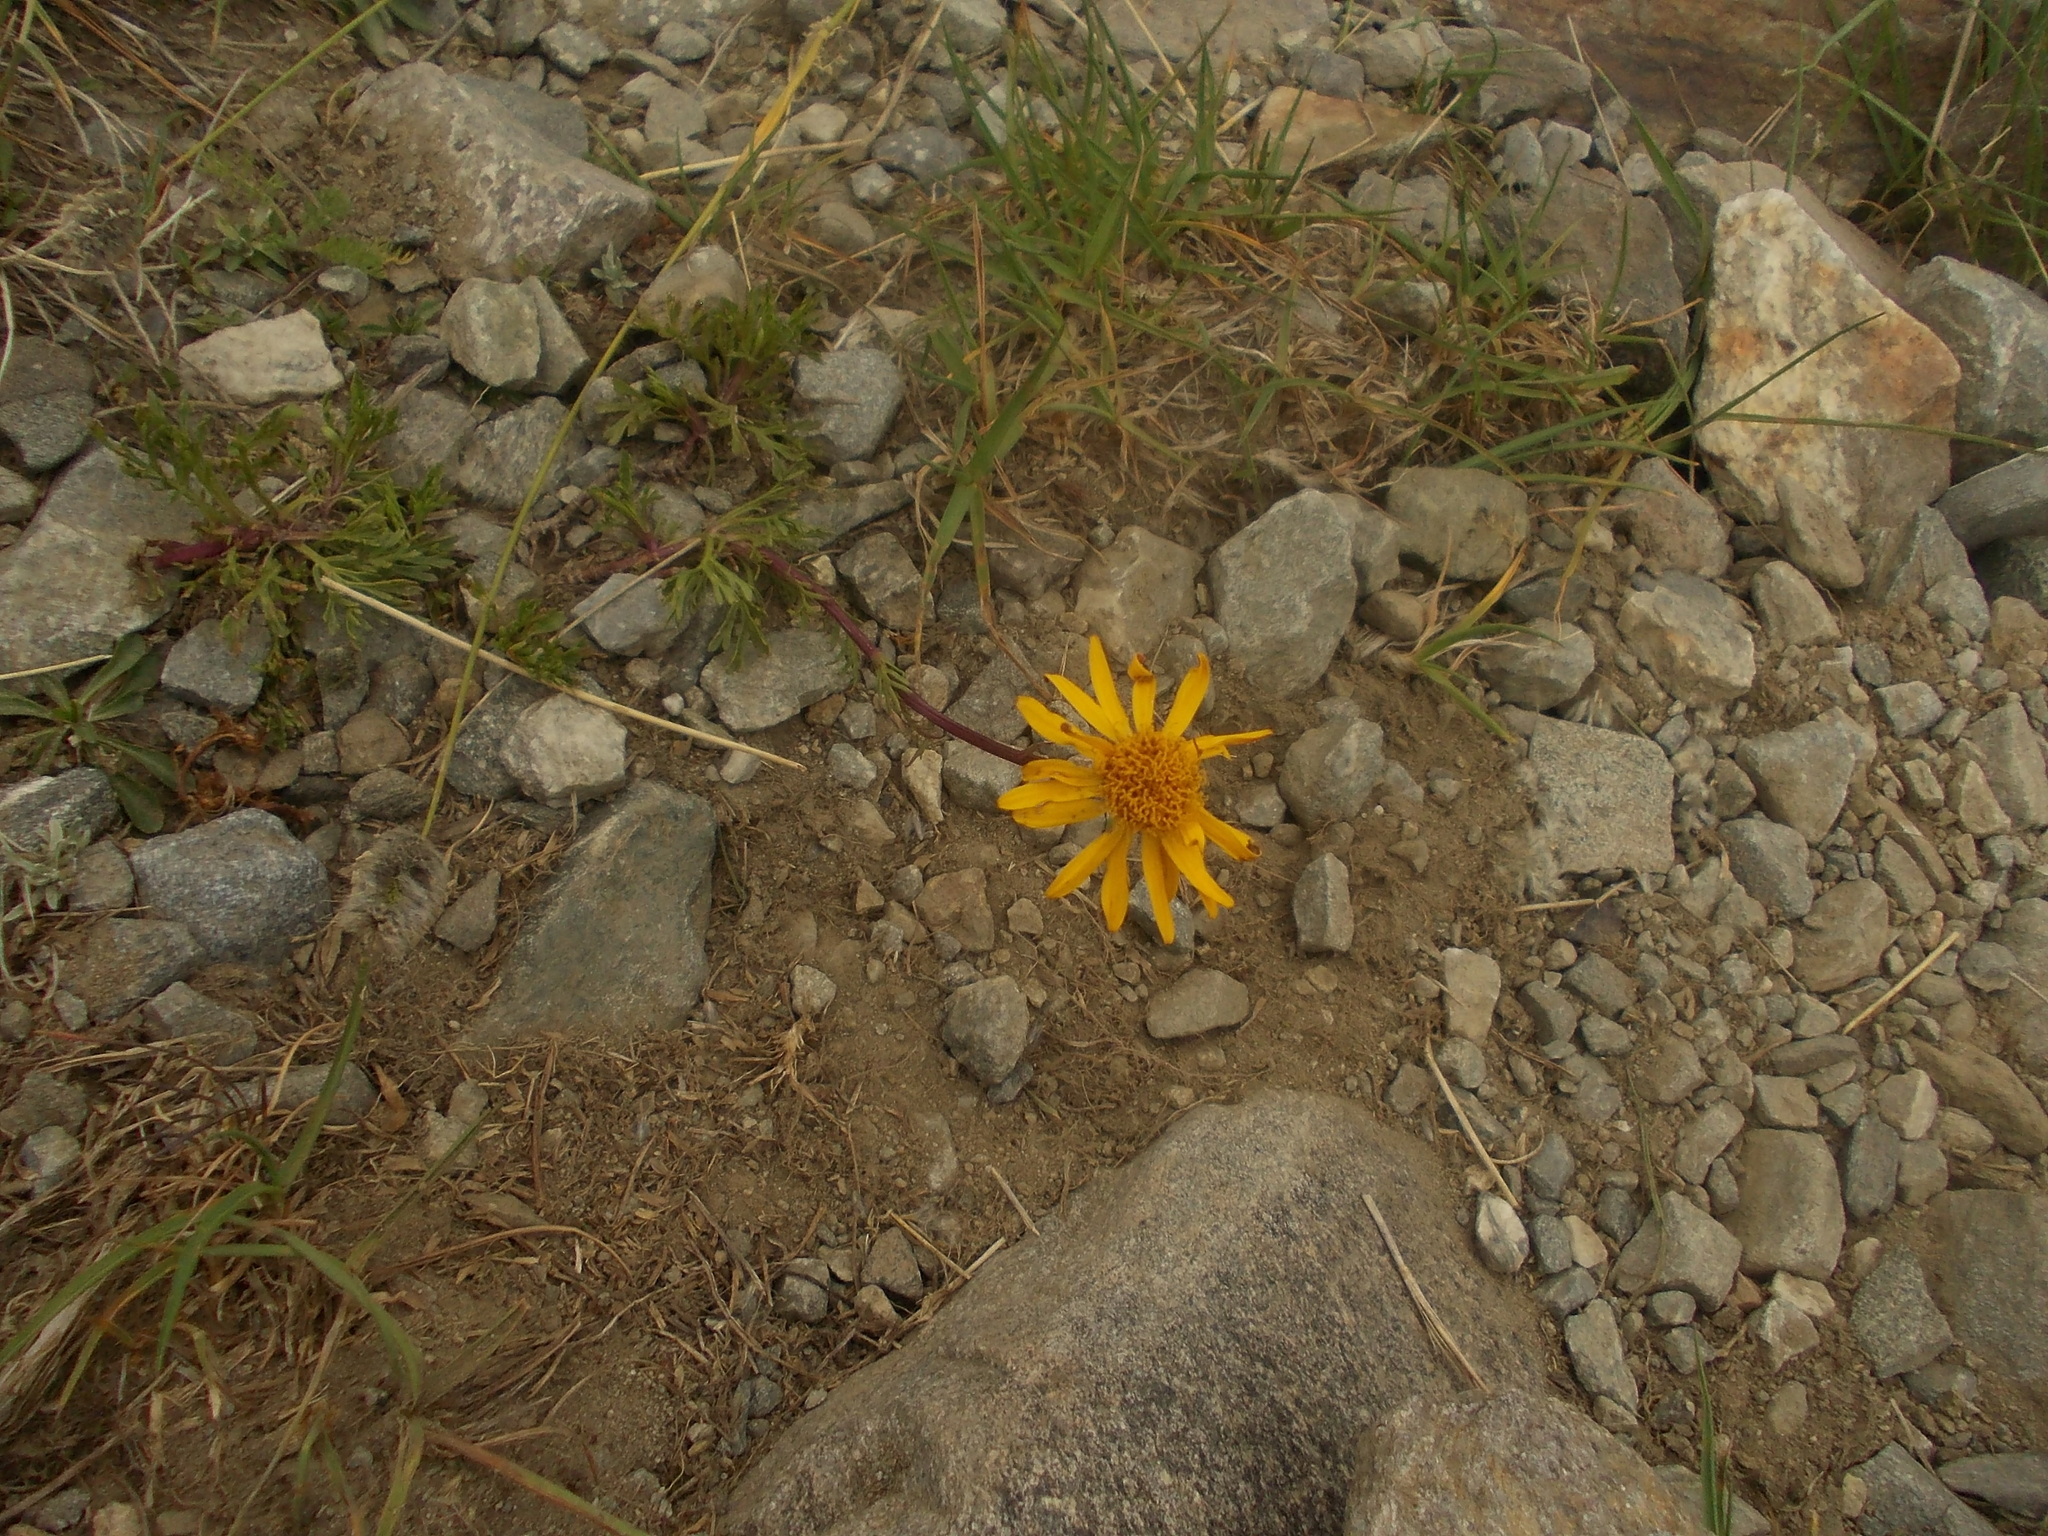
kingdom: Plantae
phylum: Tracheophyta
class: Magnoliopsida
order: Asterales
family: Asteraceae
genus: Jacobaea
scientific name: Jacobaea abrotanifolia
